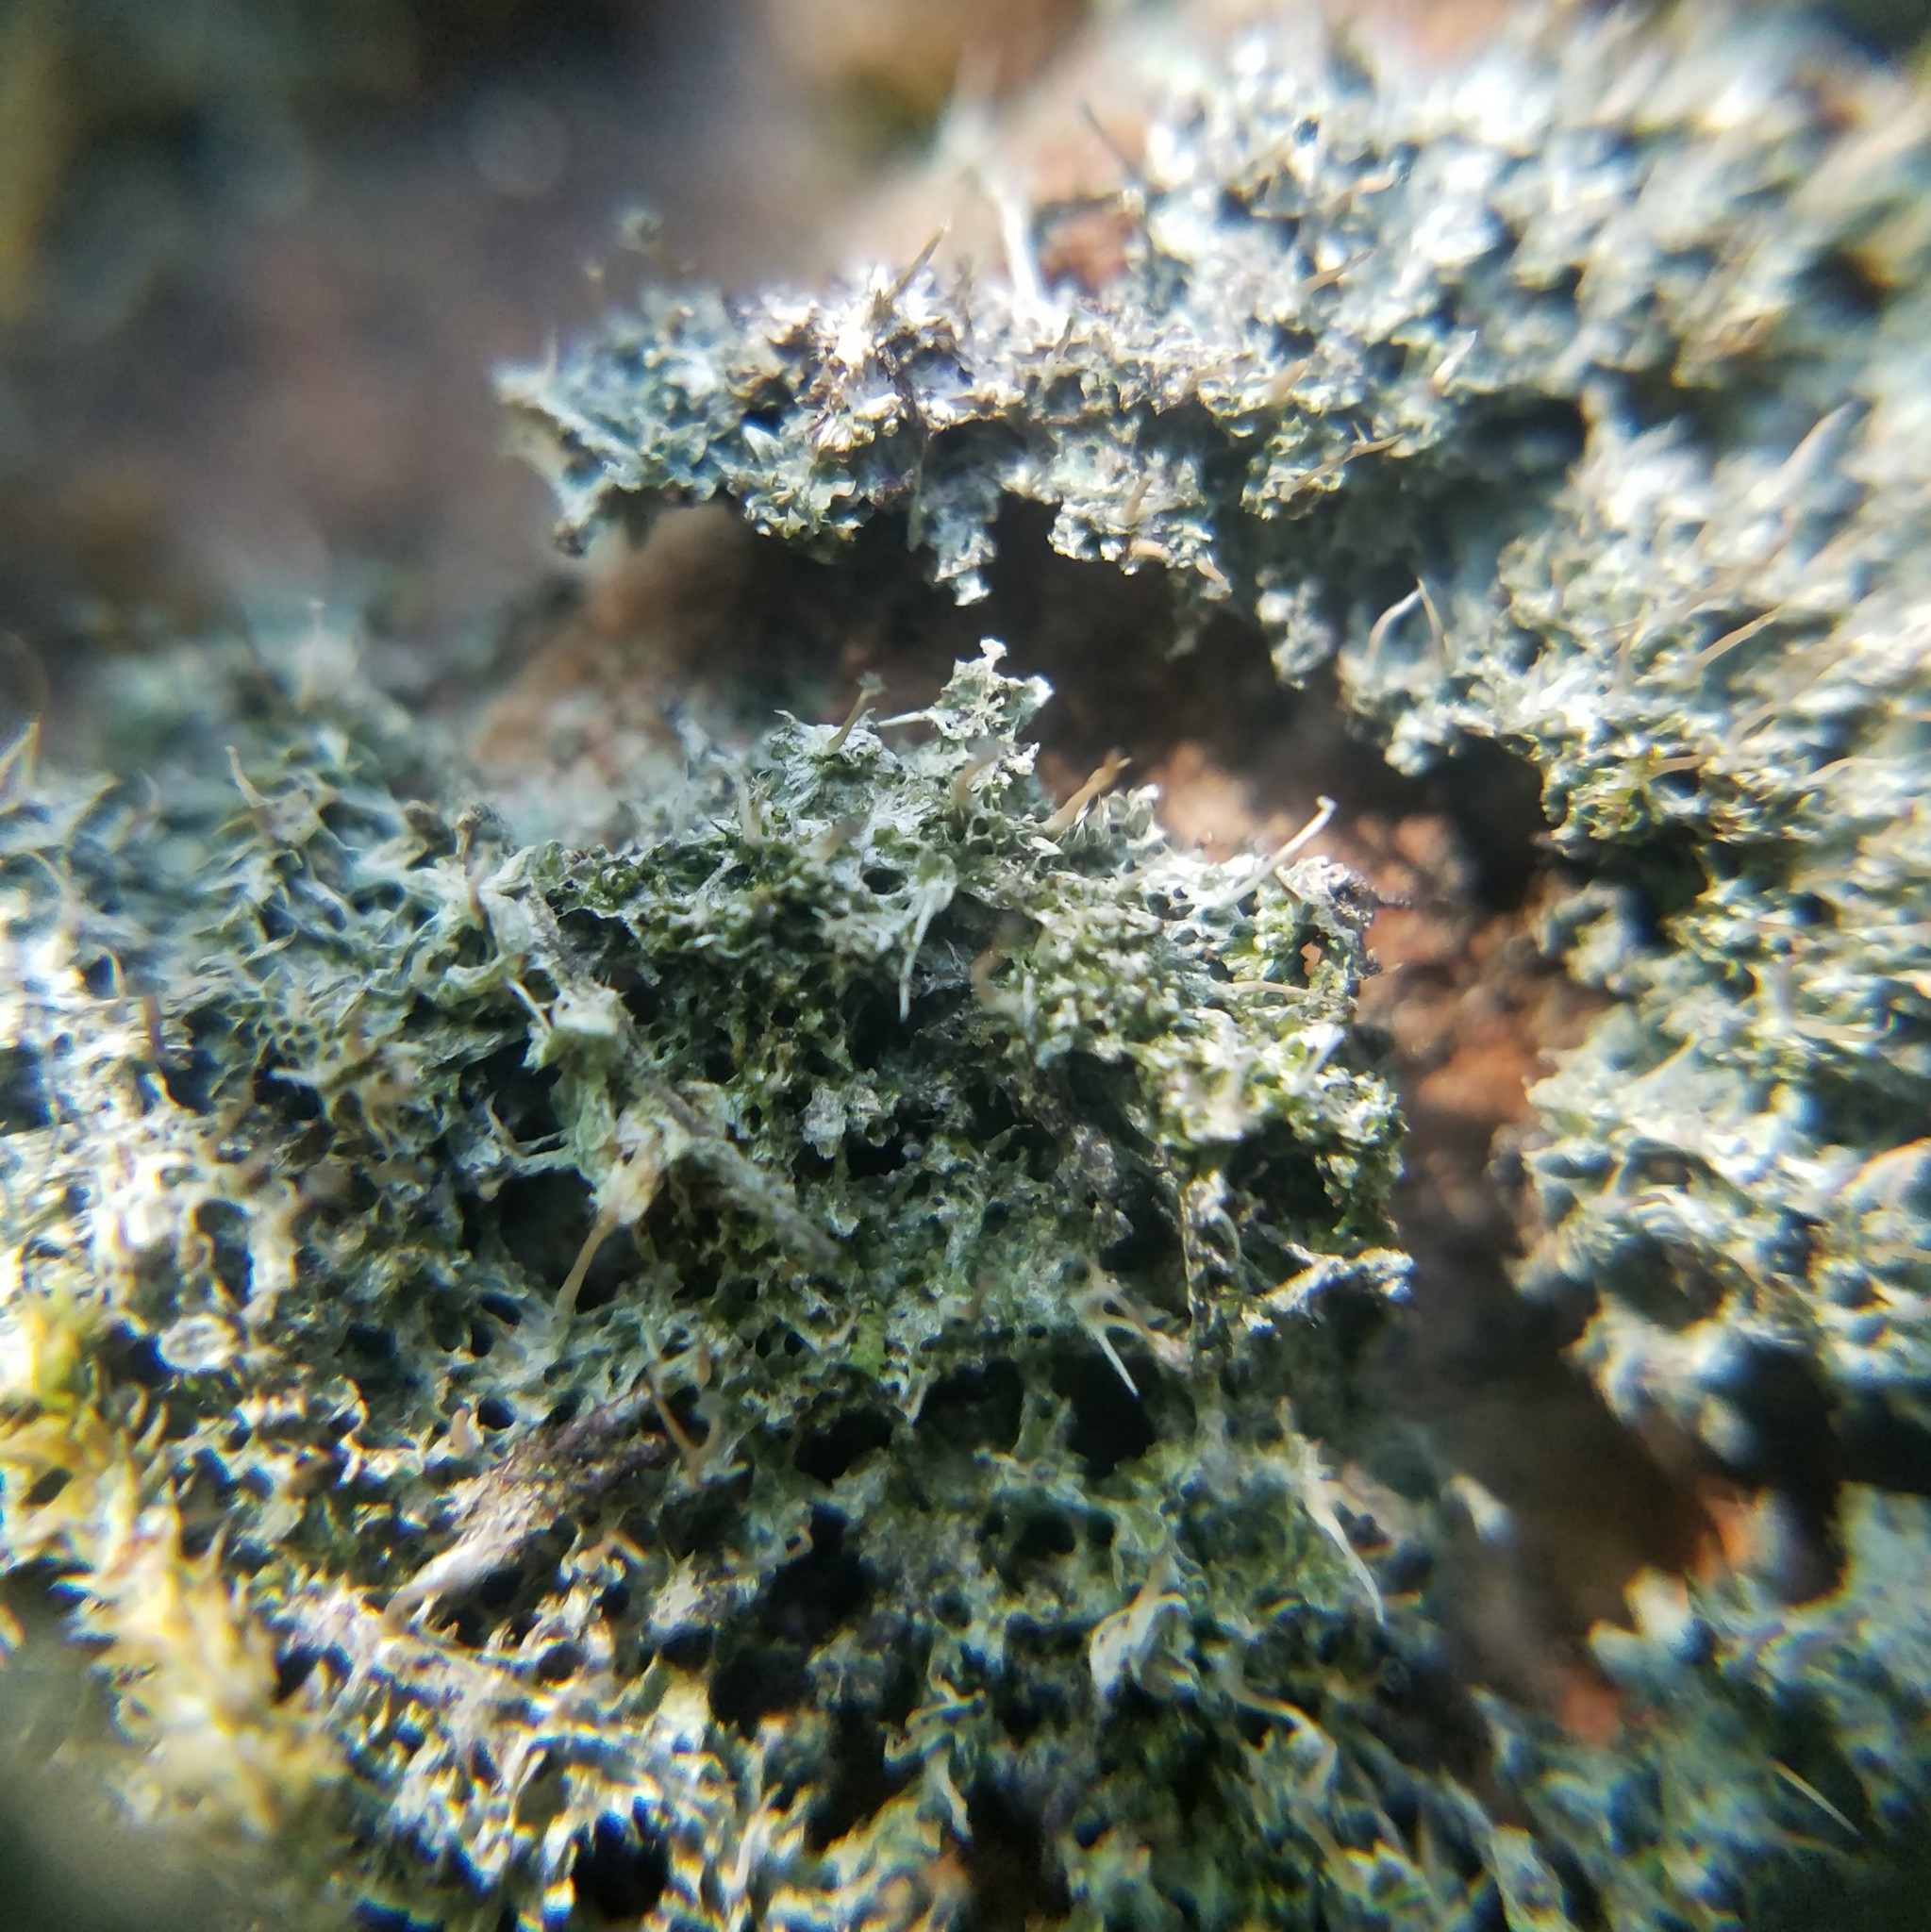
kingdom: Fungi
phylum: Ascomycota
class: Lecanoromycetes
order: Pertusariales
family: Pertusariaceae
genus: Pertusaria
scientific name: Pertusaria globularis
